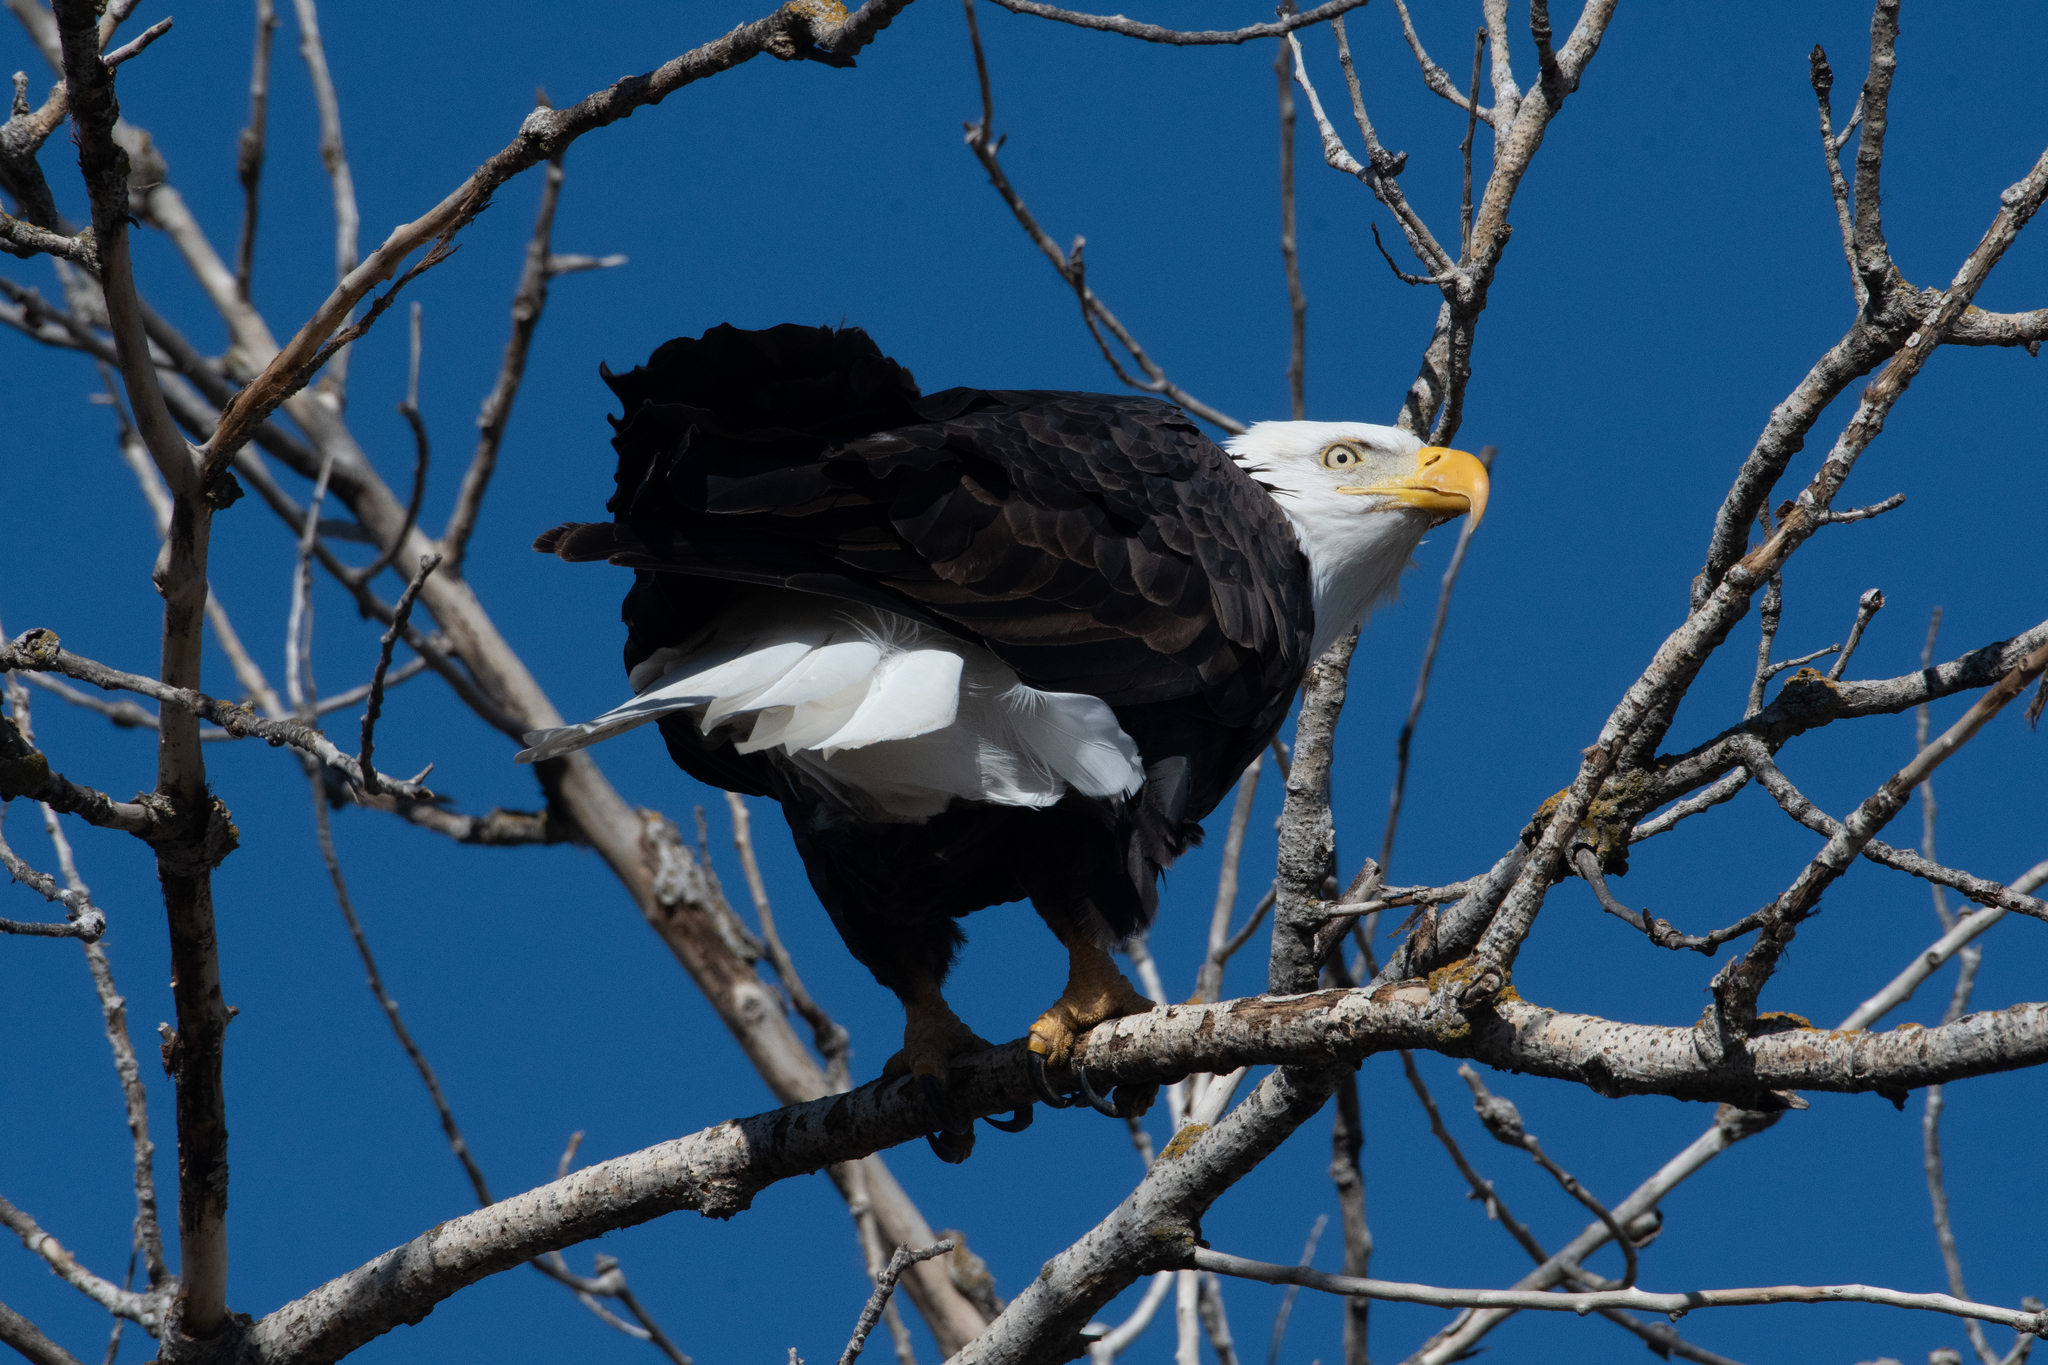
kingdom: Animalia
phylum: Chordata
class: Aves
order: Accipitriformes
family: Accipitridae
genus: Haliaeetus
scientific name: Haliaeetus leucocephalus
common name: Bald eagle
